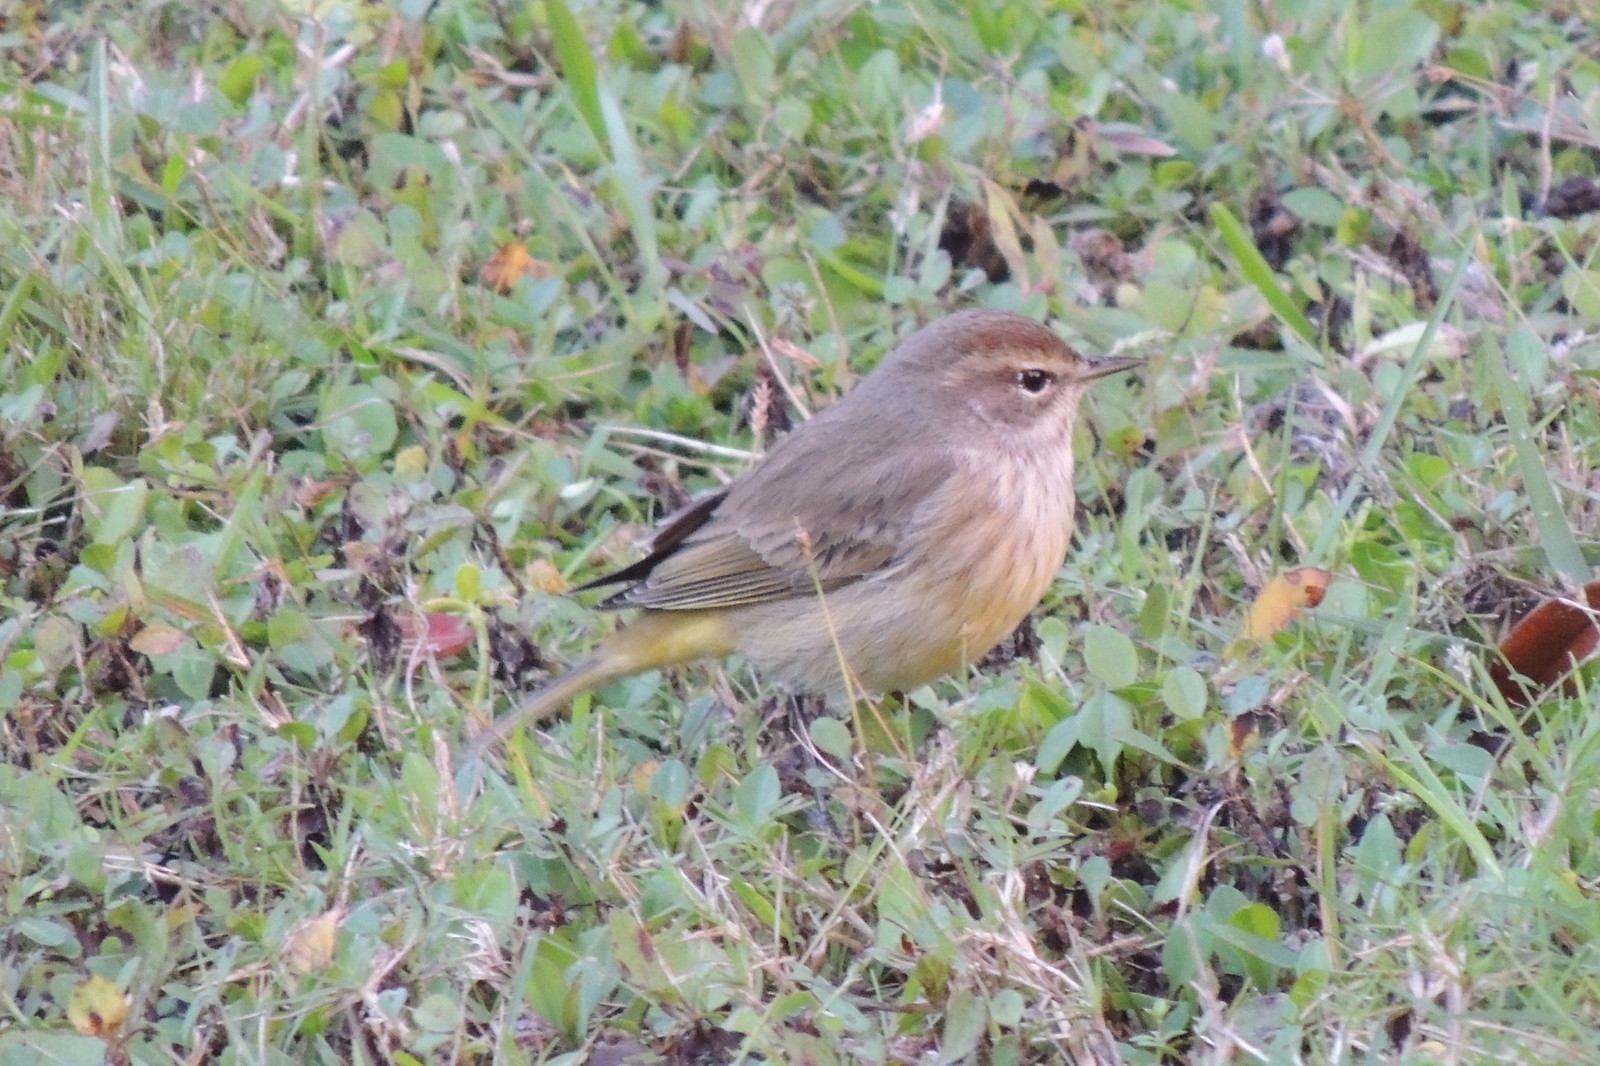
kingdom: Animalia
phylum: Chordata
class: Aves
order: Passeriformes
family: Parulidae
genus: Setophaga
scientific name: Setophaga palmarum
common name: Palm warbler
